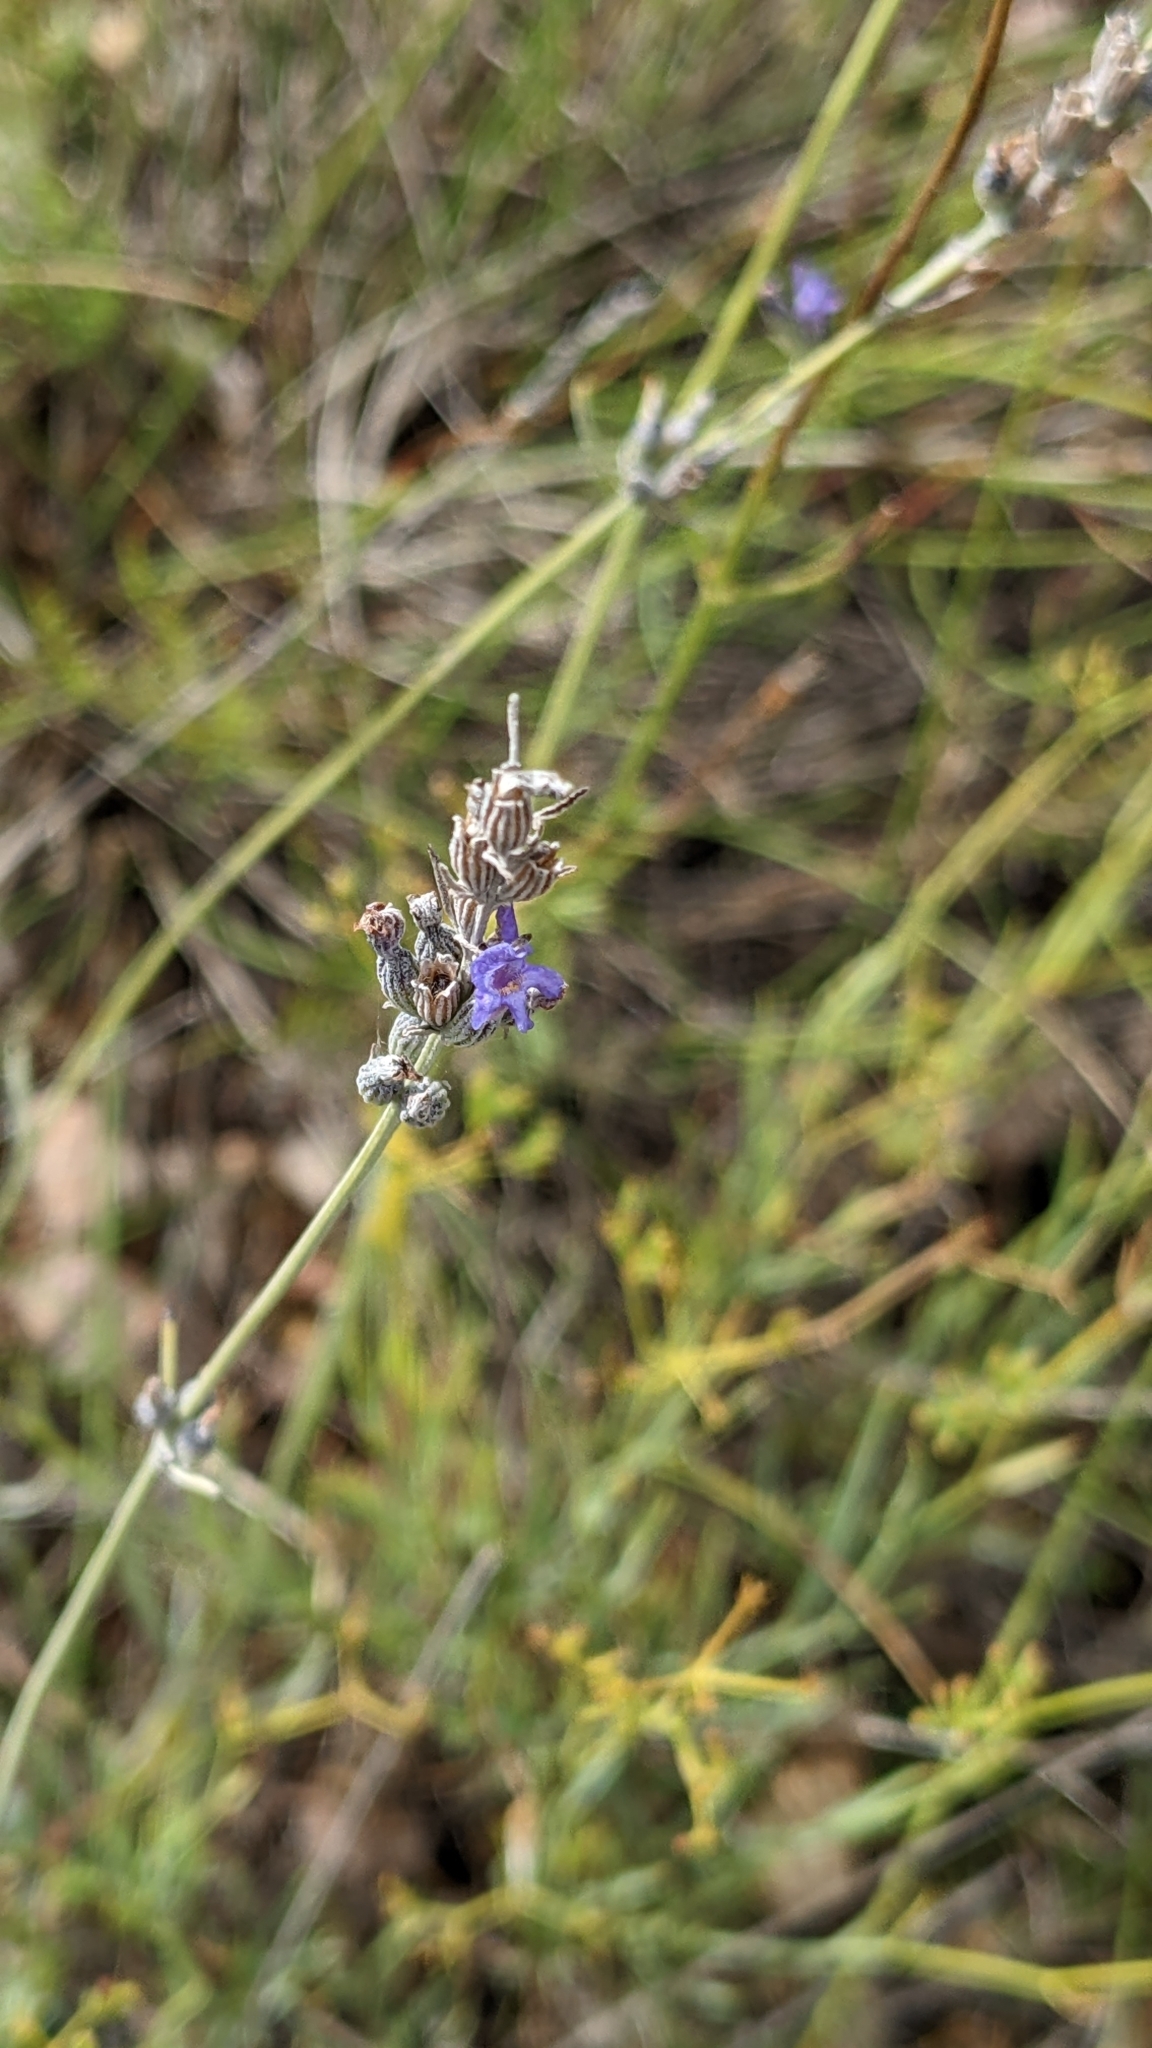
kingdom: Plantae
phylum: Tracheophyta
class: Magnoliopsida
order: Lamiales
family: Lamiaceae
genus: Lavandula
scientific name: Lavandula latifolia
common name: Spike lavendar
